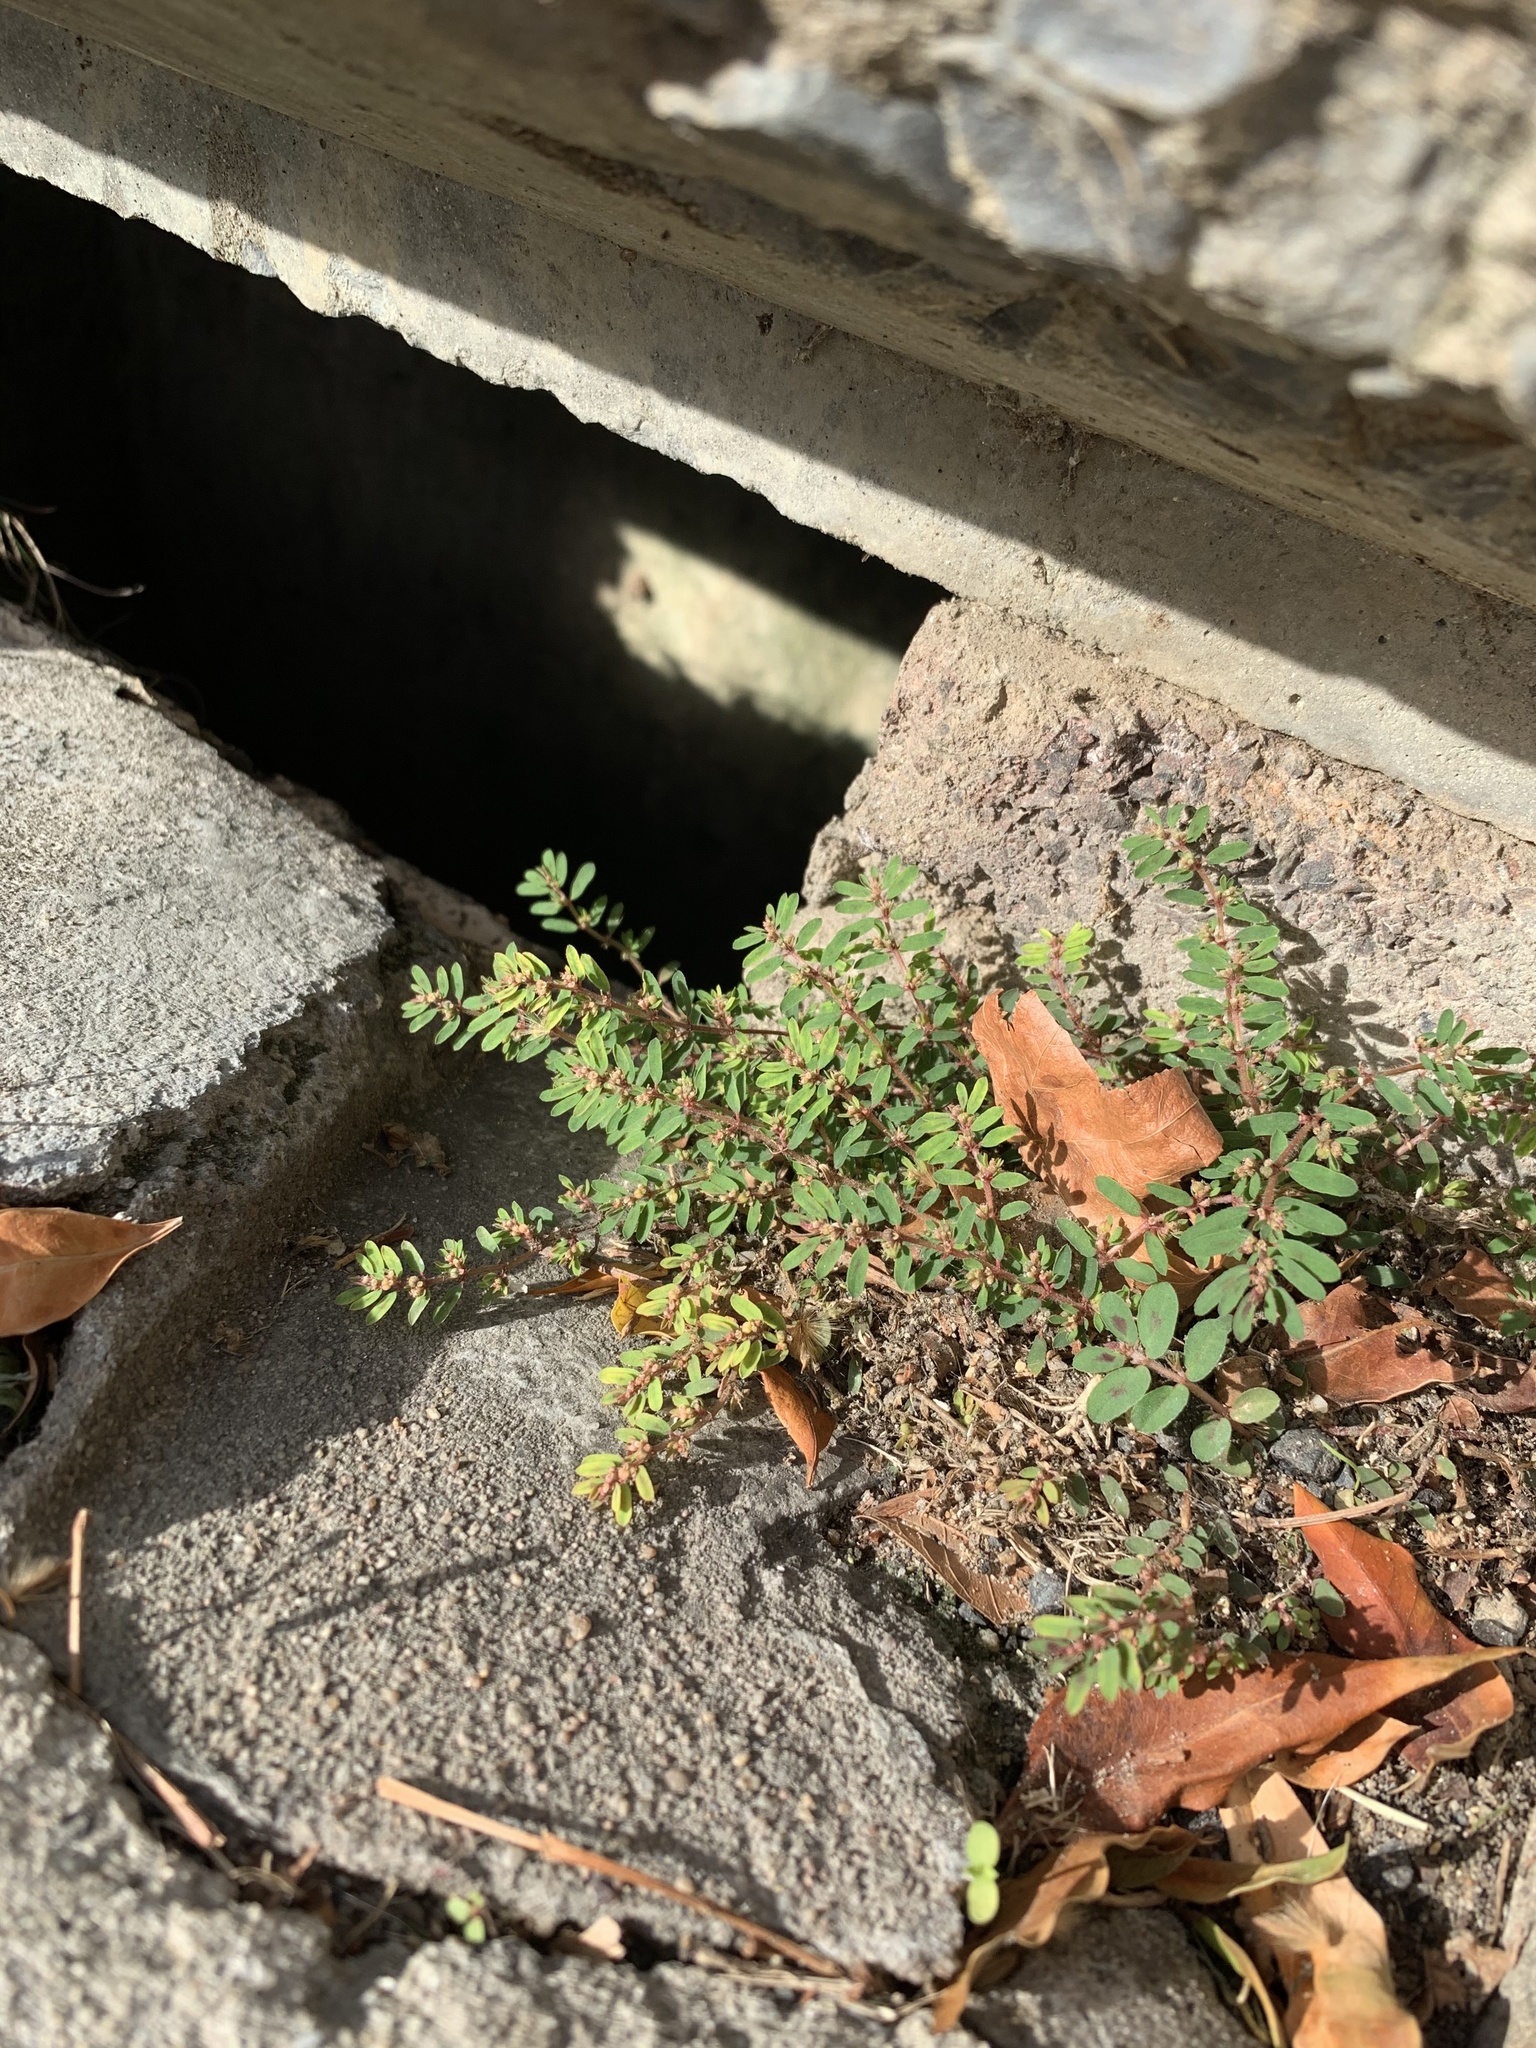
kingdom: Plantae
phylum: Tracheophyta
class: Magnoliopsida
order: Malpighiales
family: Euphorbiaceae
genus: Euphorbia
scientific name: Euphorbia maculata
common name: Spotted spurge
